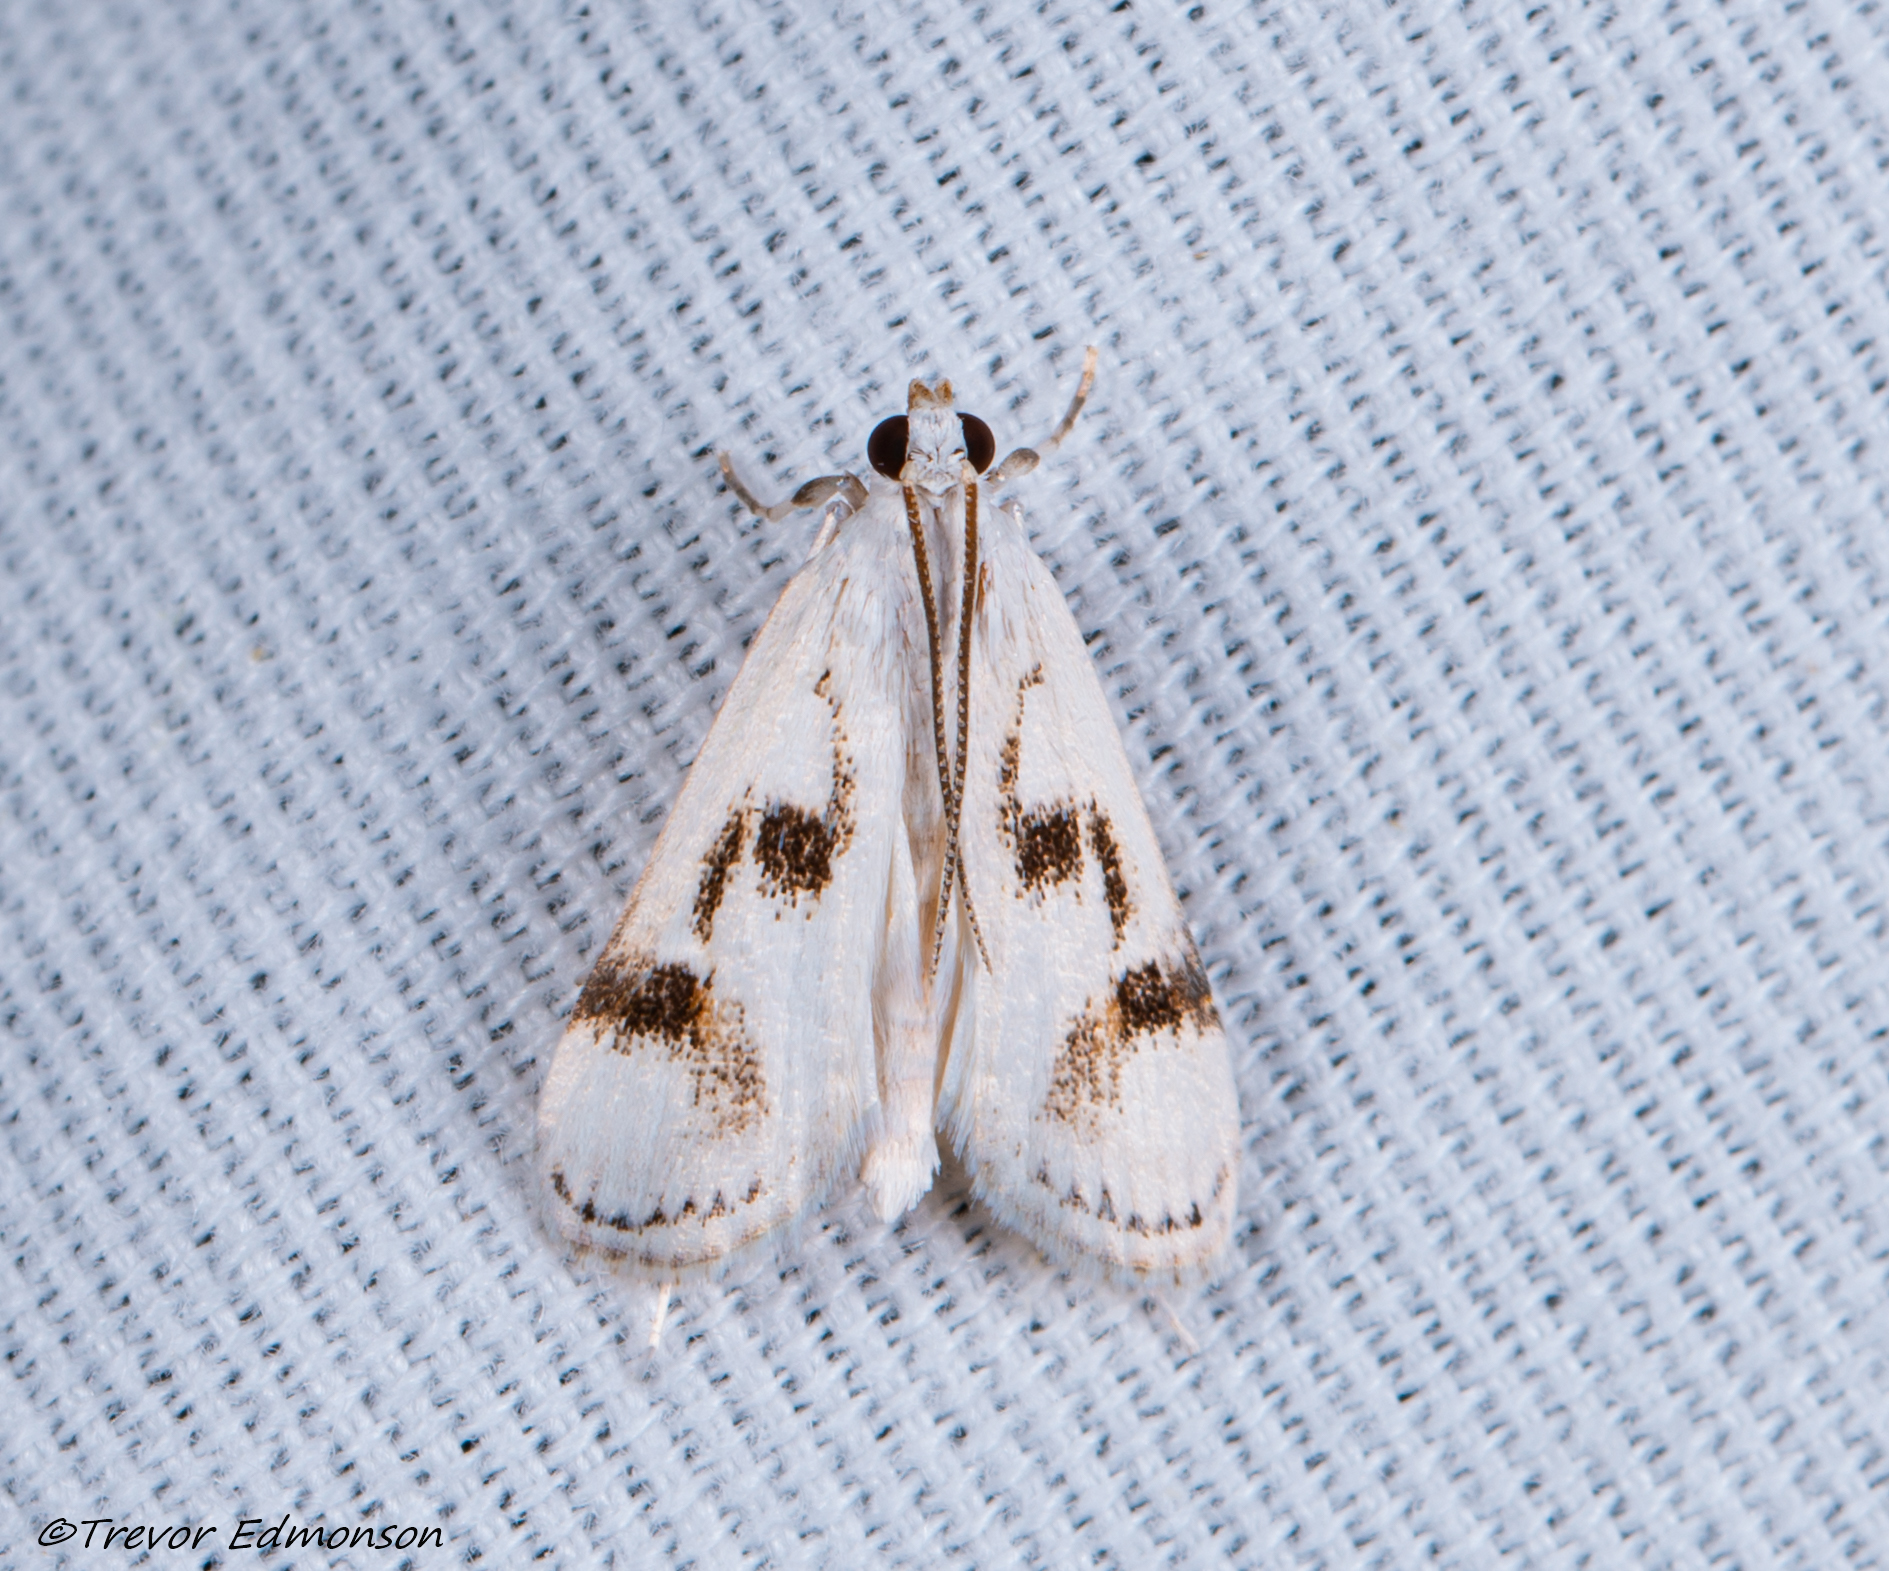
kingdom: Animalia
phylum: Arthropoda
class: Insecta
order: Lepidoptera
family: Crambidae
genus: Parapoynx
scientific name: Parapoynx maculalis
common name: Polymorphic pondweed moth
